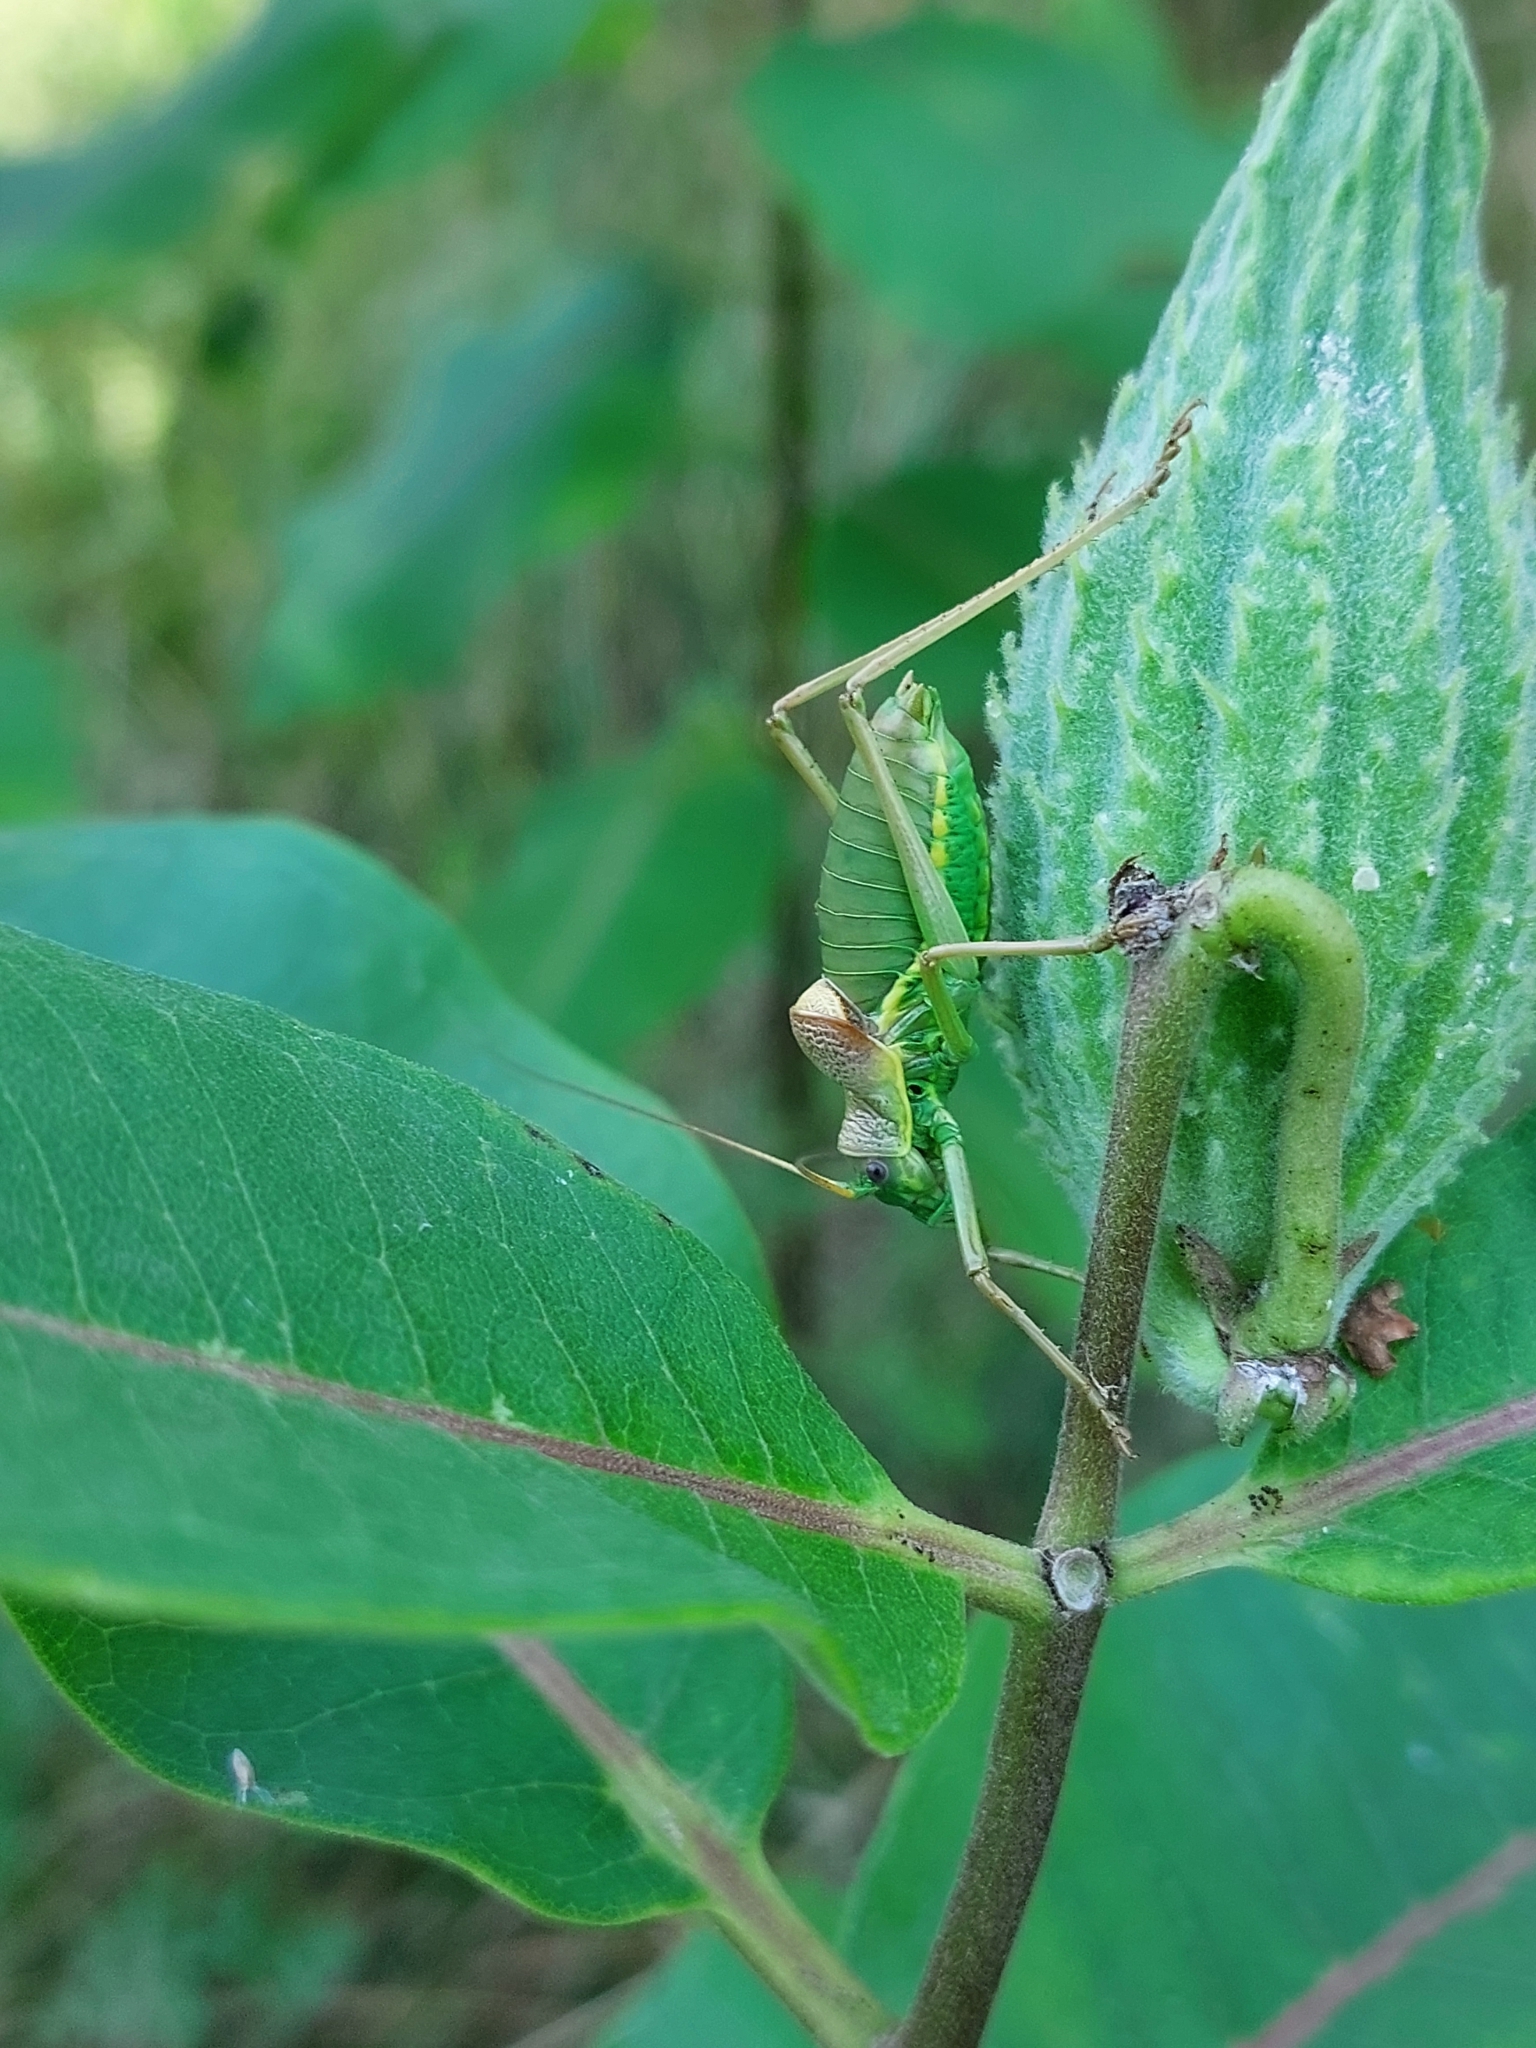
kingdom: Animalia
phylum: Arthropoda
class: Insecta
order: Orthoptera
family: Tettigoniidae
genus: Ephippiger
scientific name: Ephippiger ephippiger
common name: Eastern saddle bush-cricket
